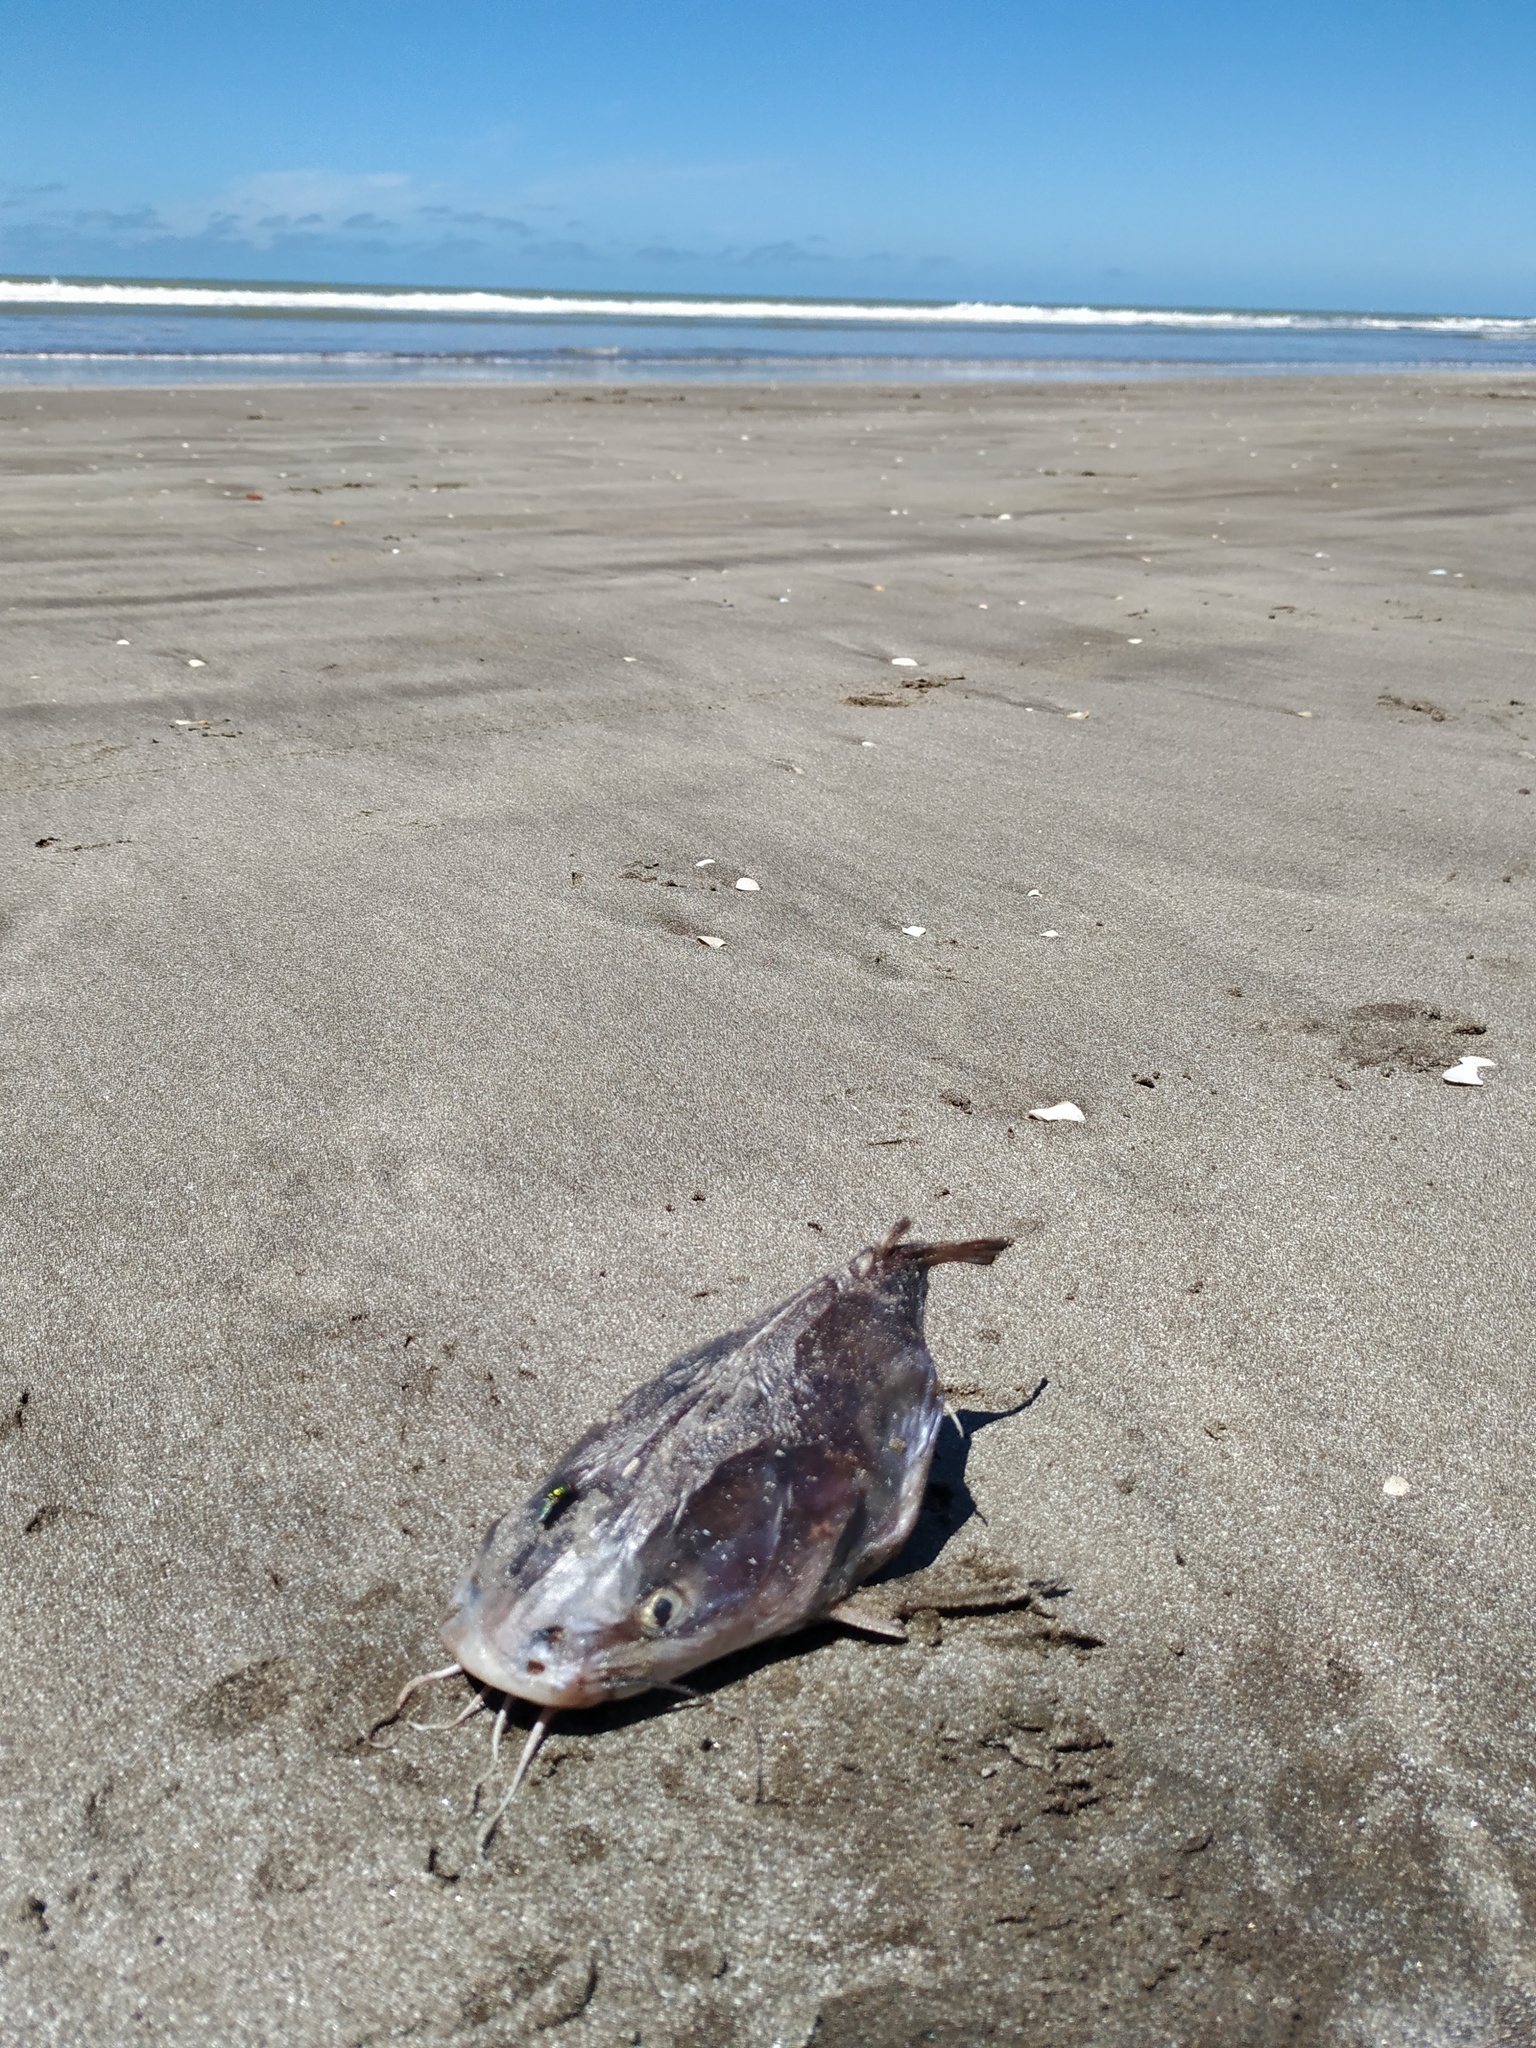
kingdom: Animalia
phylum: Chordata
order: Siluriformes
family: Ariidae
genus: Genidens
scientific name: Genidens barbus
